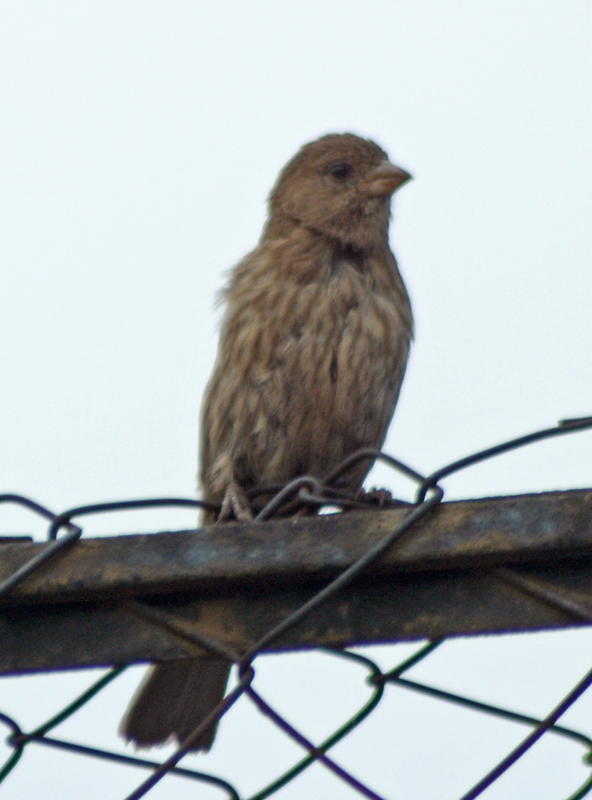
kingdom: Animalia
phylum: Chordata
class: Aves
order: Passeriformes
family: Fringillidae
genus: Haemorhous
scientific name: Haemorhous mexicanus
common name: House finch
